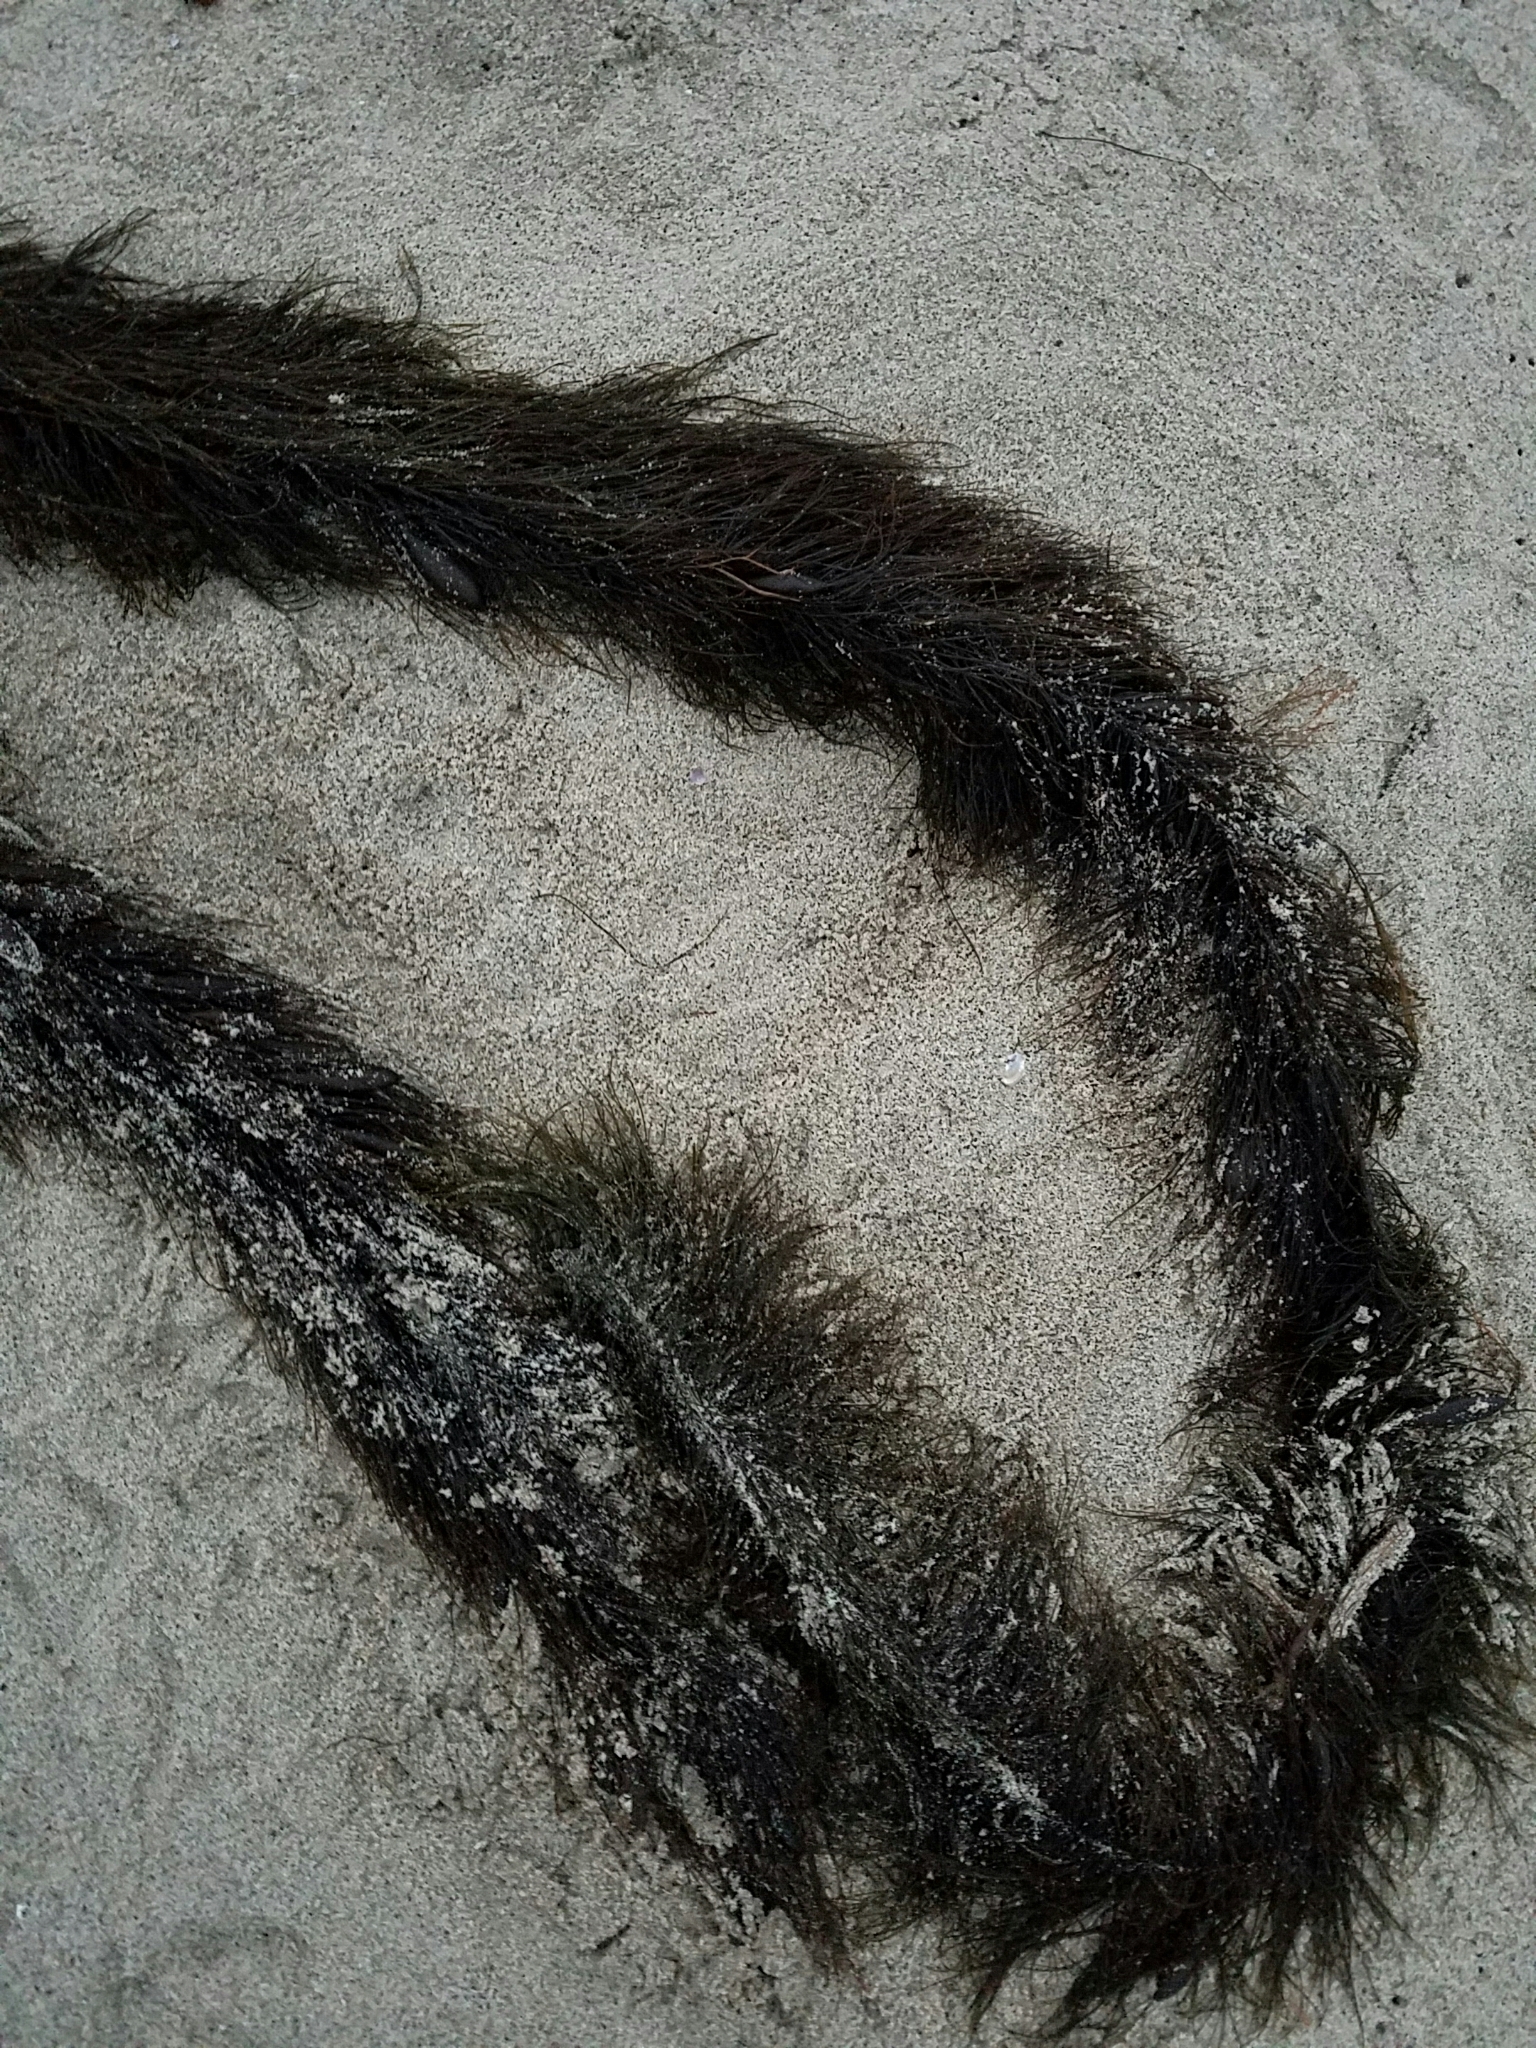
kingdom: Chromista
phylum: Ochrophyta
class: Phaeophyceae
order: Laminariales
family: Lessoniaceae
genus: Egregia
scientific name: Egregia menziesii
